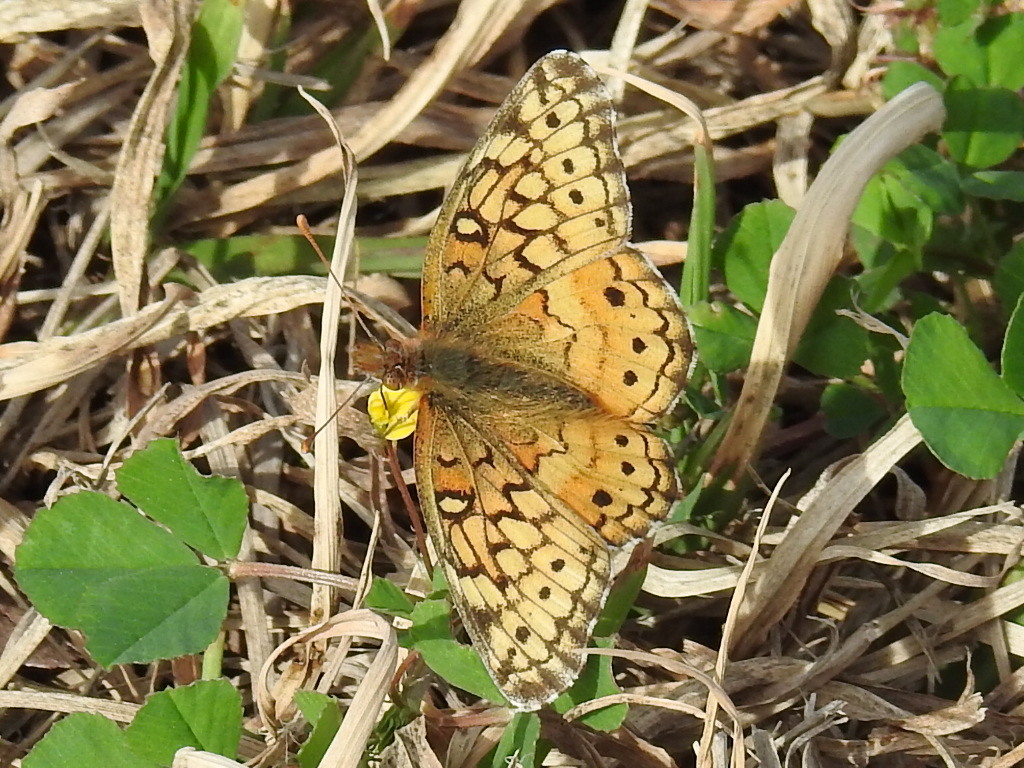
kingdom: Animalia
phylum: Arthropoda
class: Insecta
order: Lepidoptera
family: Nymphalidae
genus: Euptoieta
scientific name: Euptoieta claudia
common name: Variegated fritillary
